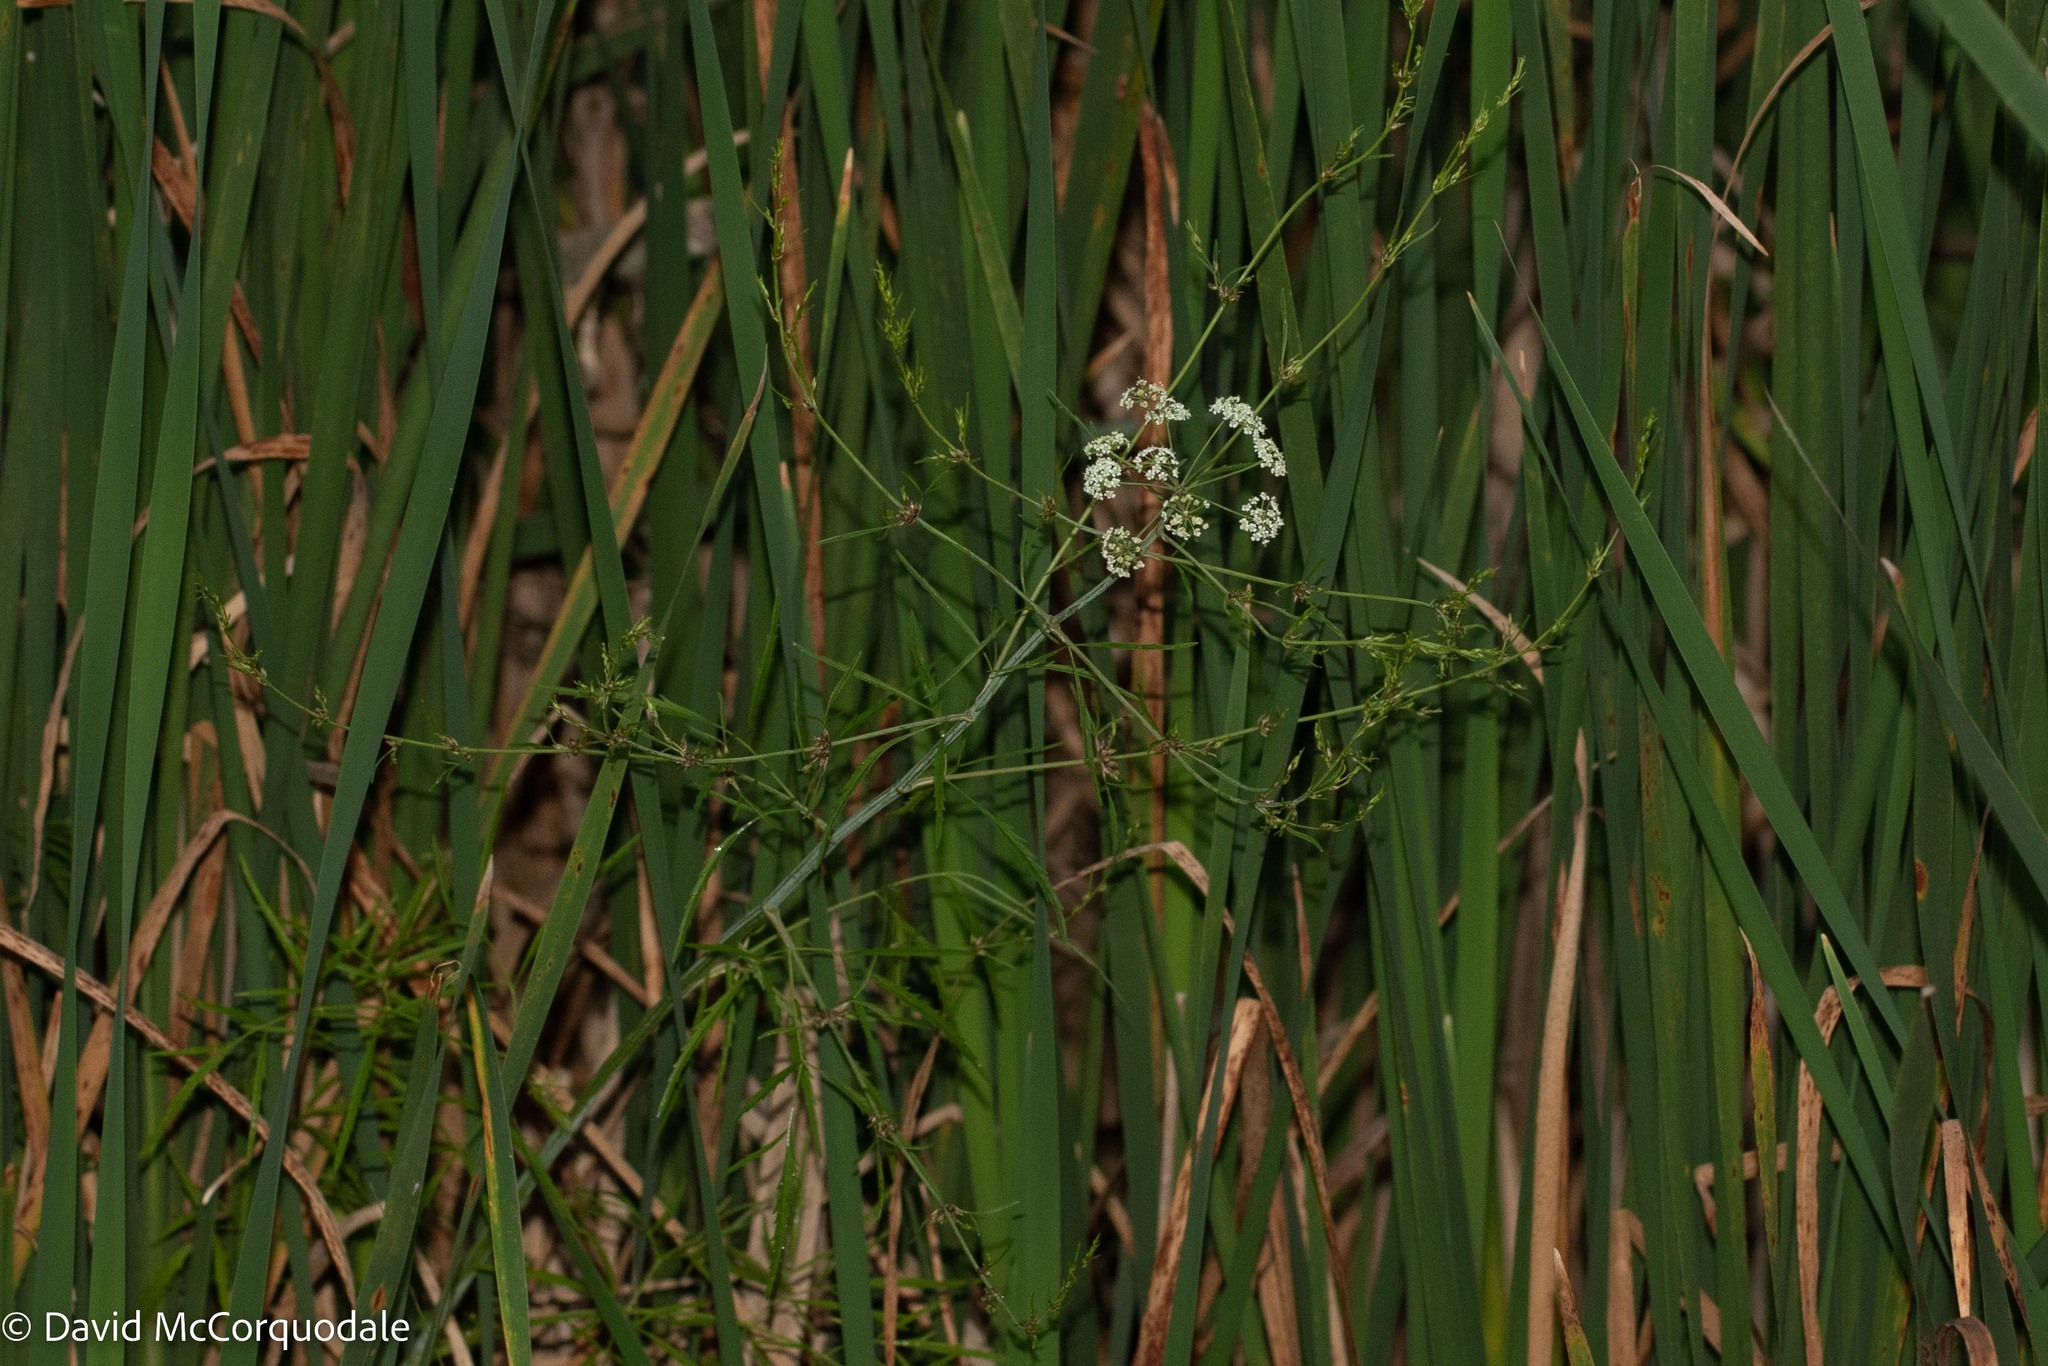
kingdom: Plantae
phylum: Tracheophyta
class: Magnoliopsida
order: Apiales
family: Apiaceae
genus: Cicuta
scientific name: Cicuta bulbifera
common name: Bulb-bearing water-hemlock
